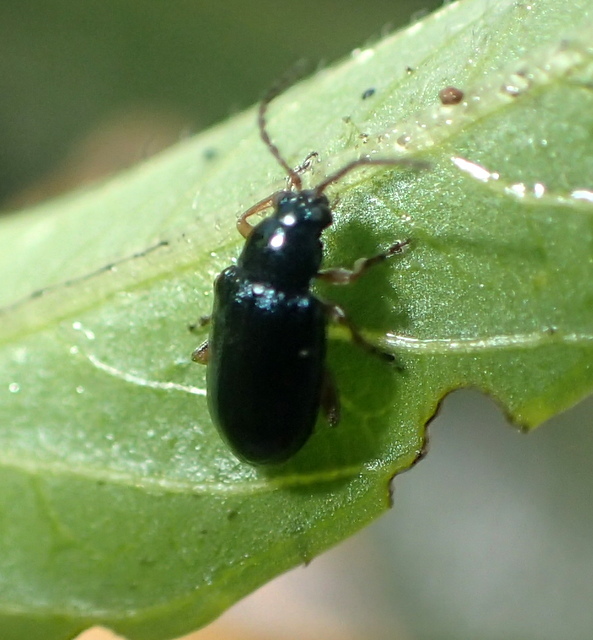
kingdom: Animalia
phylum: Arthropoda
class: Insecta
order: Coleoptera
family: Chrysomelidae
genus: Lysathia
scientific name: Lysathia ludoviciana
